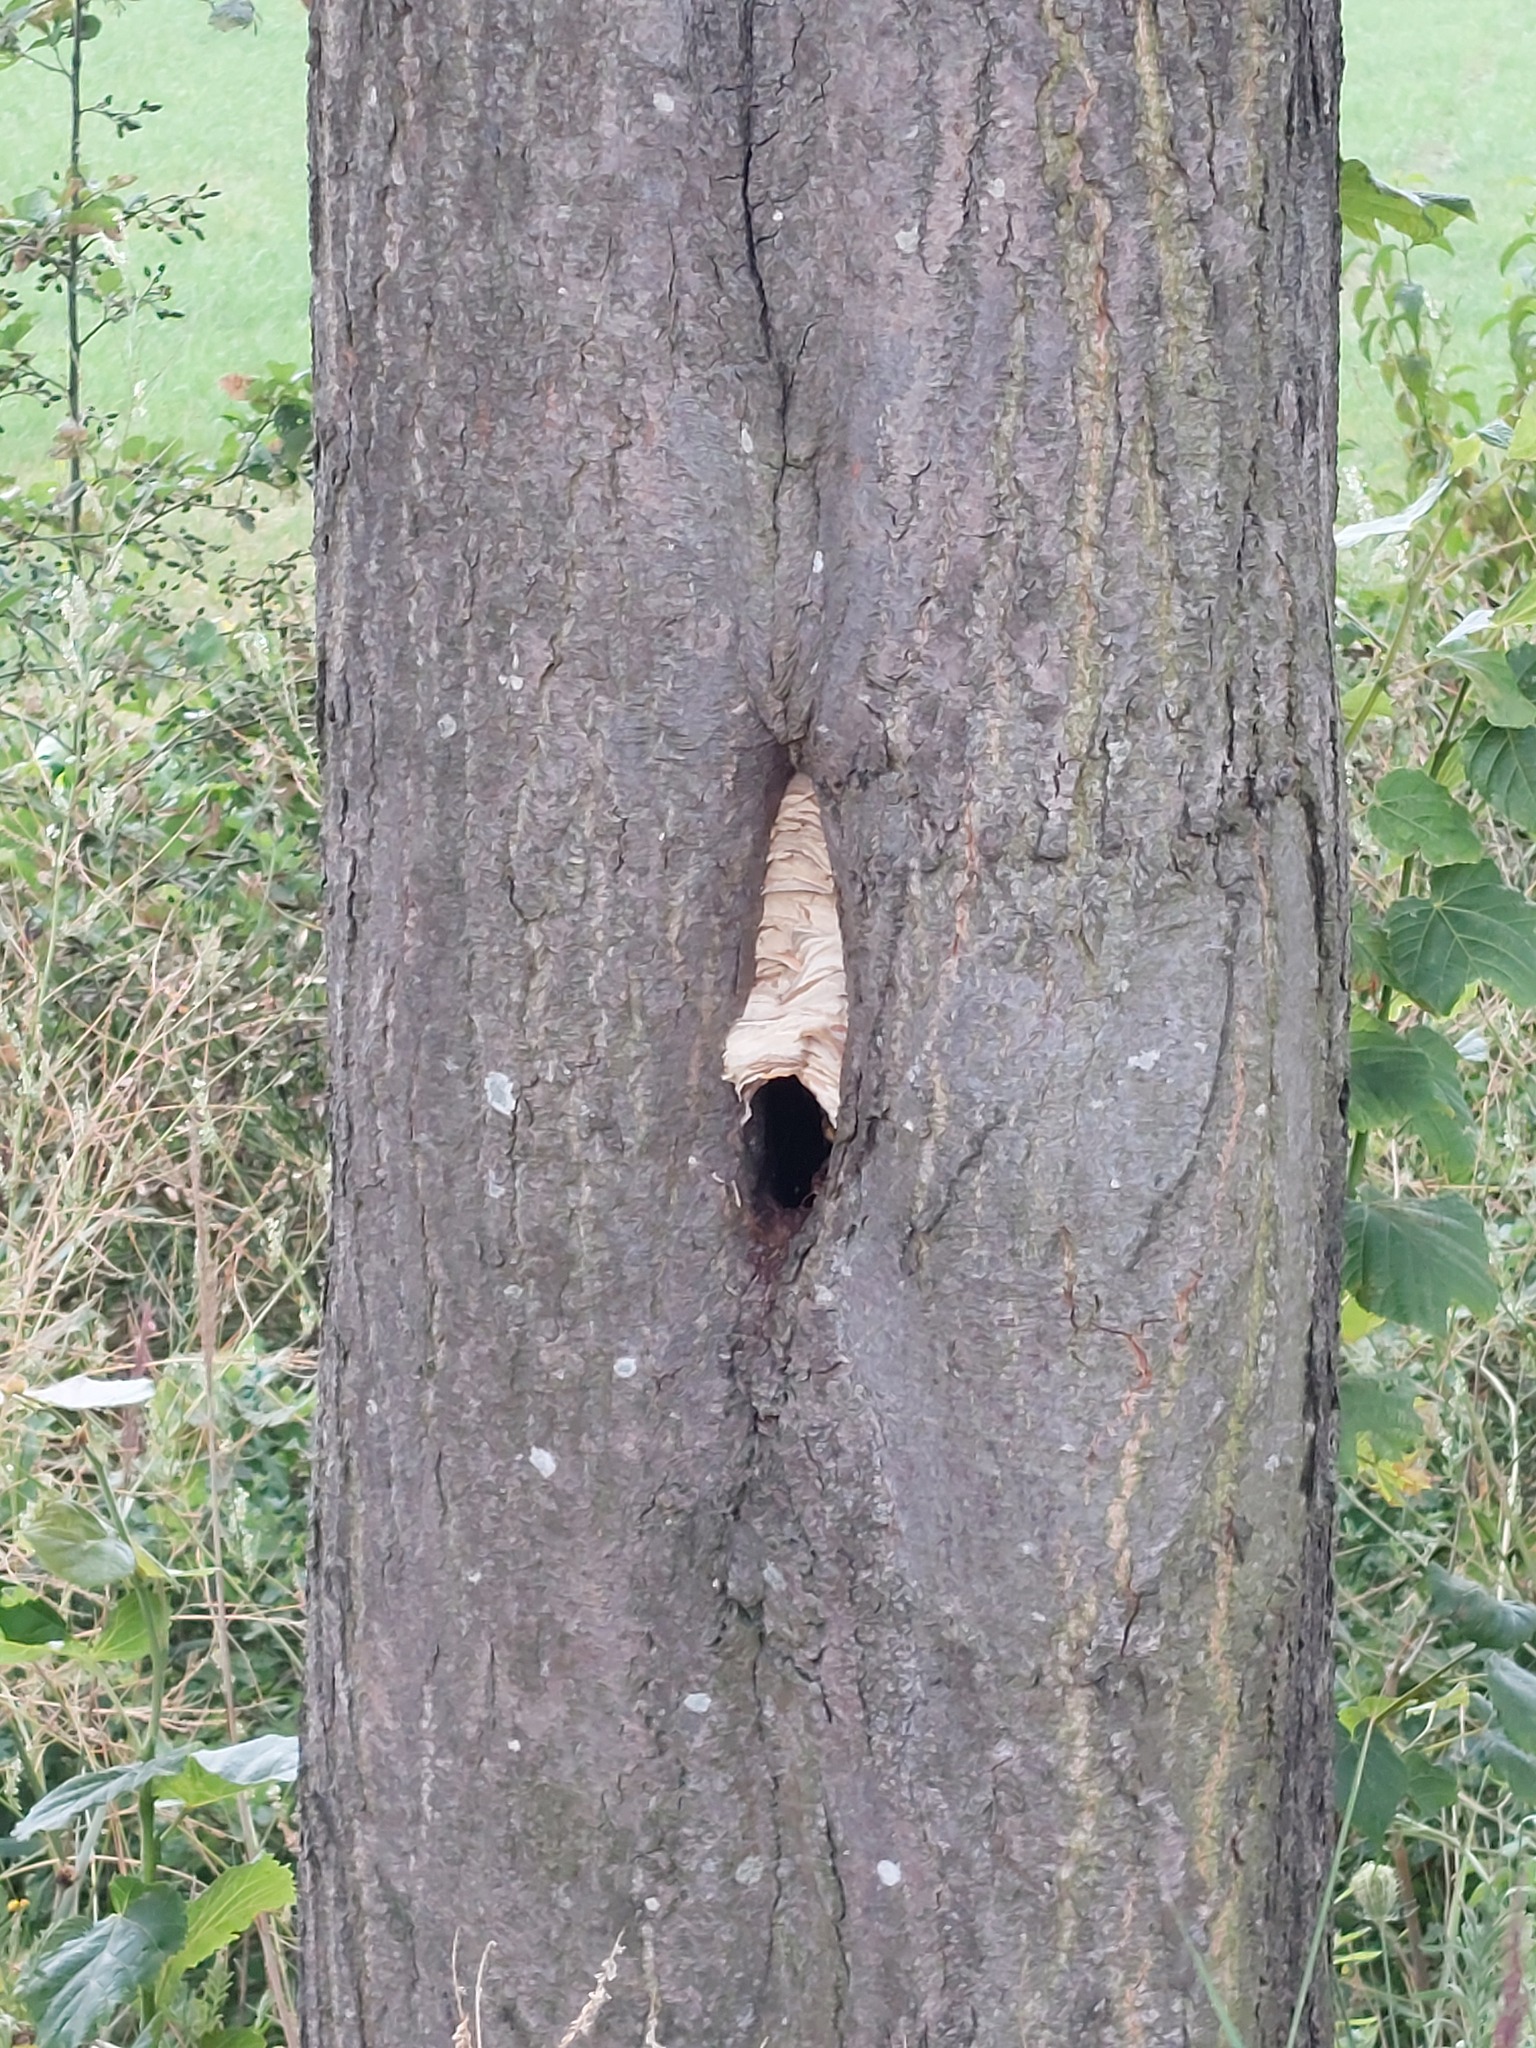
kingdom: Animalia
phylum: Arthropoda
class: Insecta
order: Hymenoptera
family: Vespidae
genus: Vespa
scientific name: Vespa crabro
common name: Hornet
